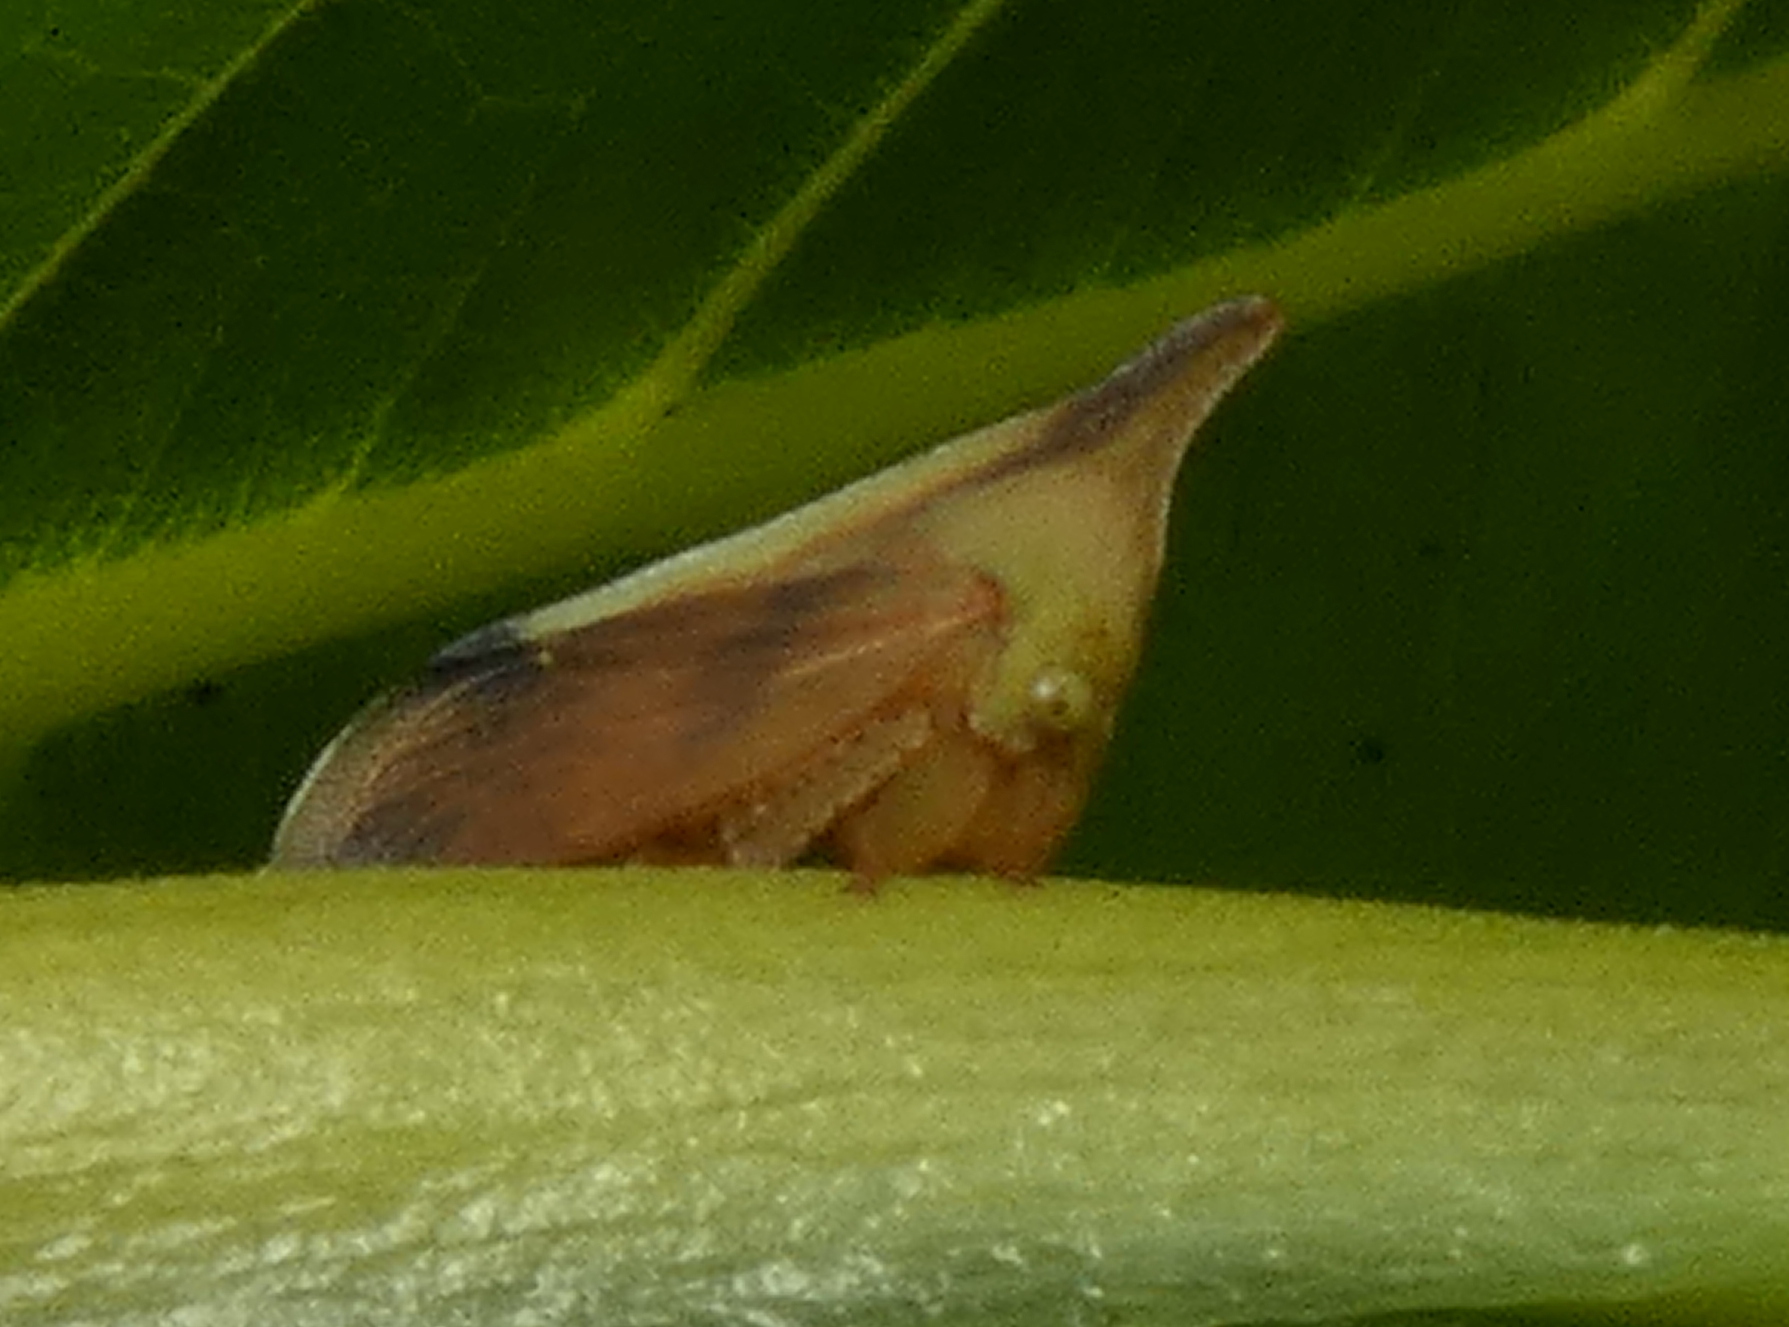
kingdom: Animalia
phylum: Arthropoda
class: Insecta
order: Hemiptera
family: Membracidae
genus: Enchenopa
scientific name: Enchenopa concolor
